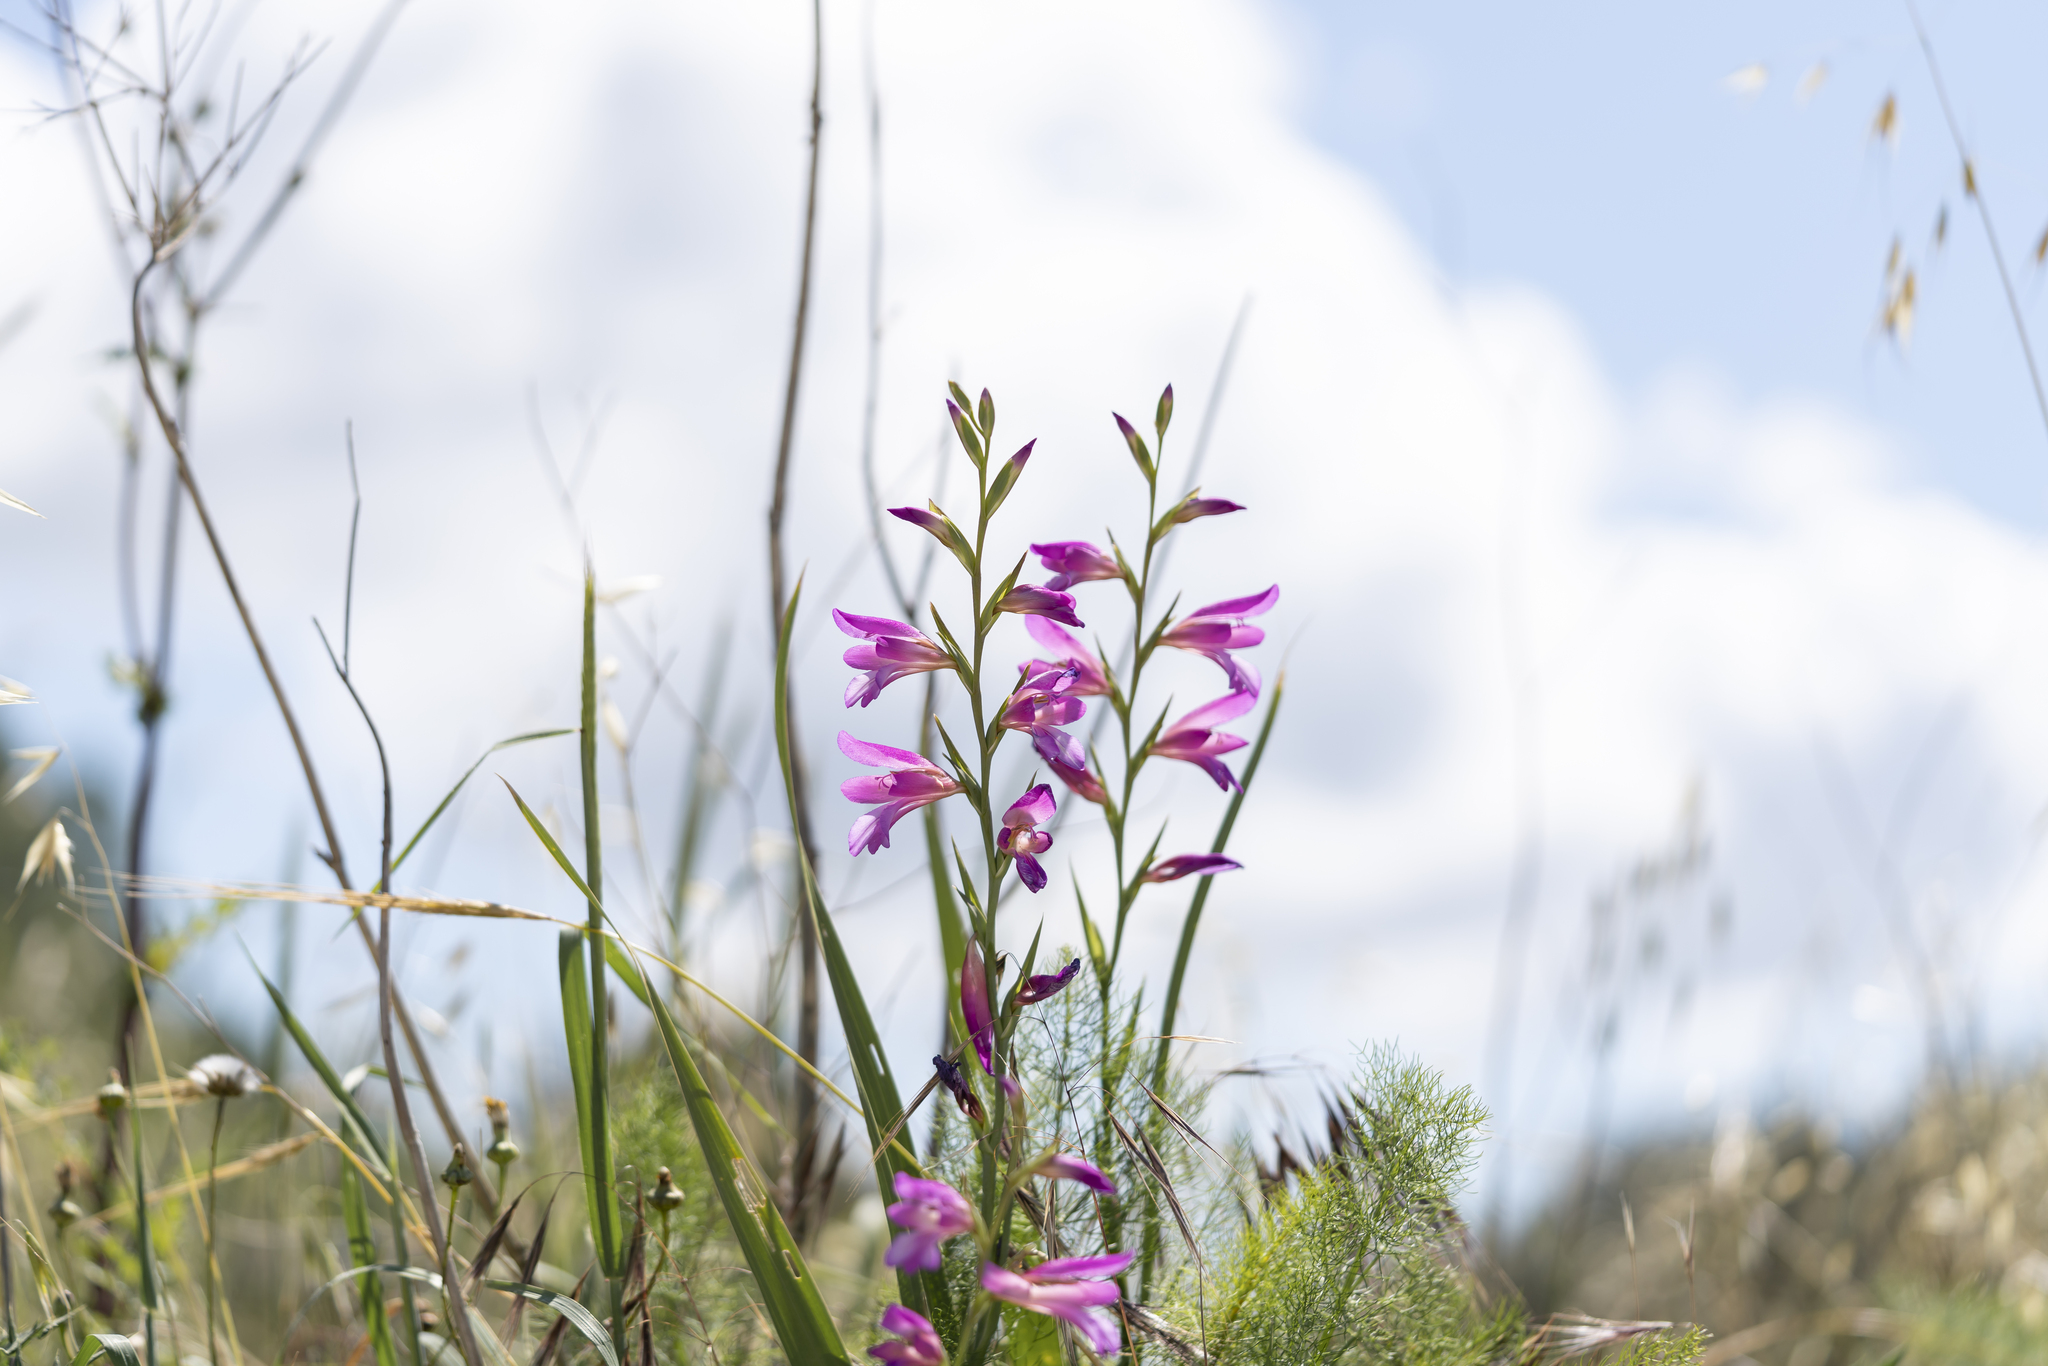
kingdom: Plantae
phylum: Tracheophyta
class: Liliopsida
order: Asparagales
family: Iridaceae
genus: Gladiolus
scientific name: Gladiolus italicus
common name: Field gladiolus
